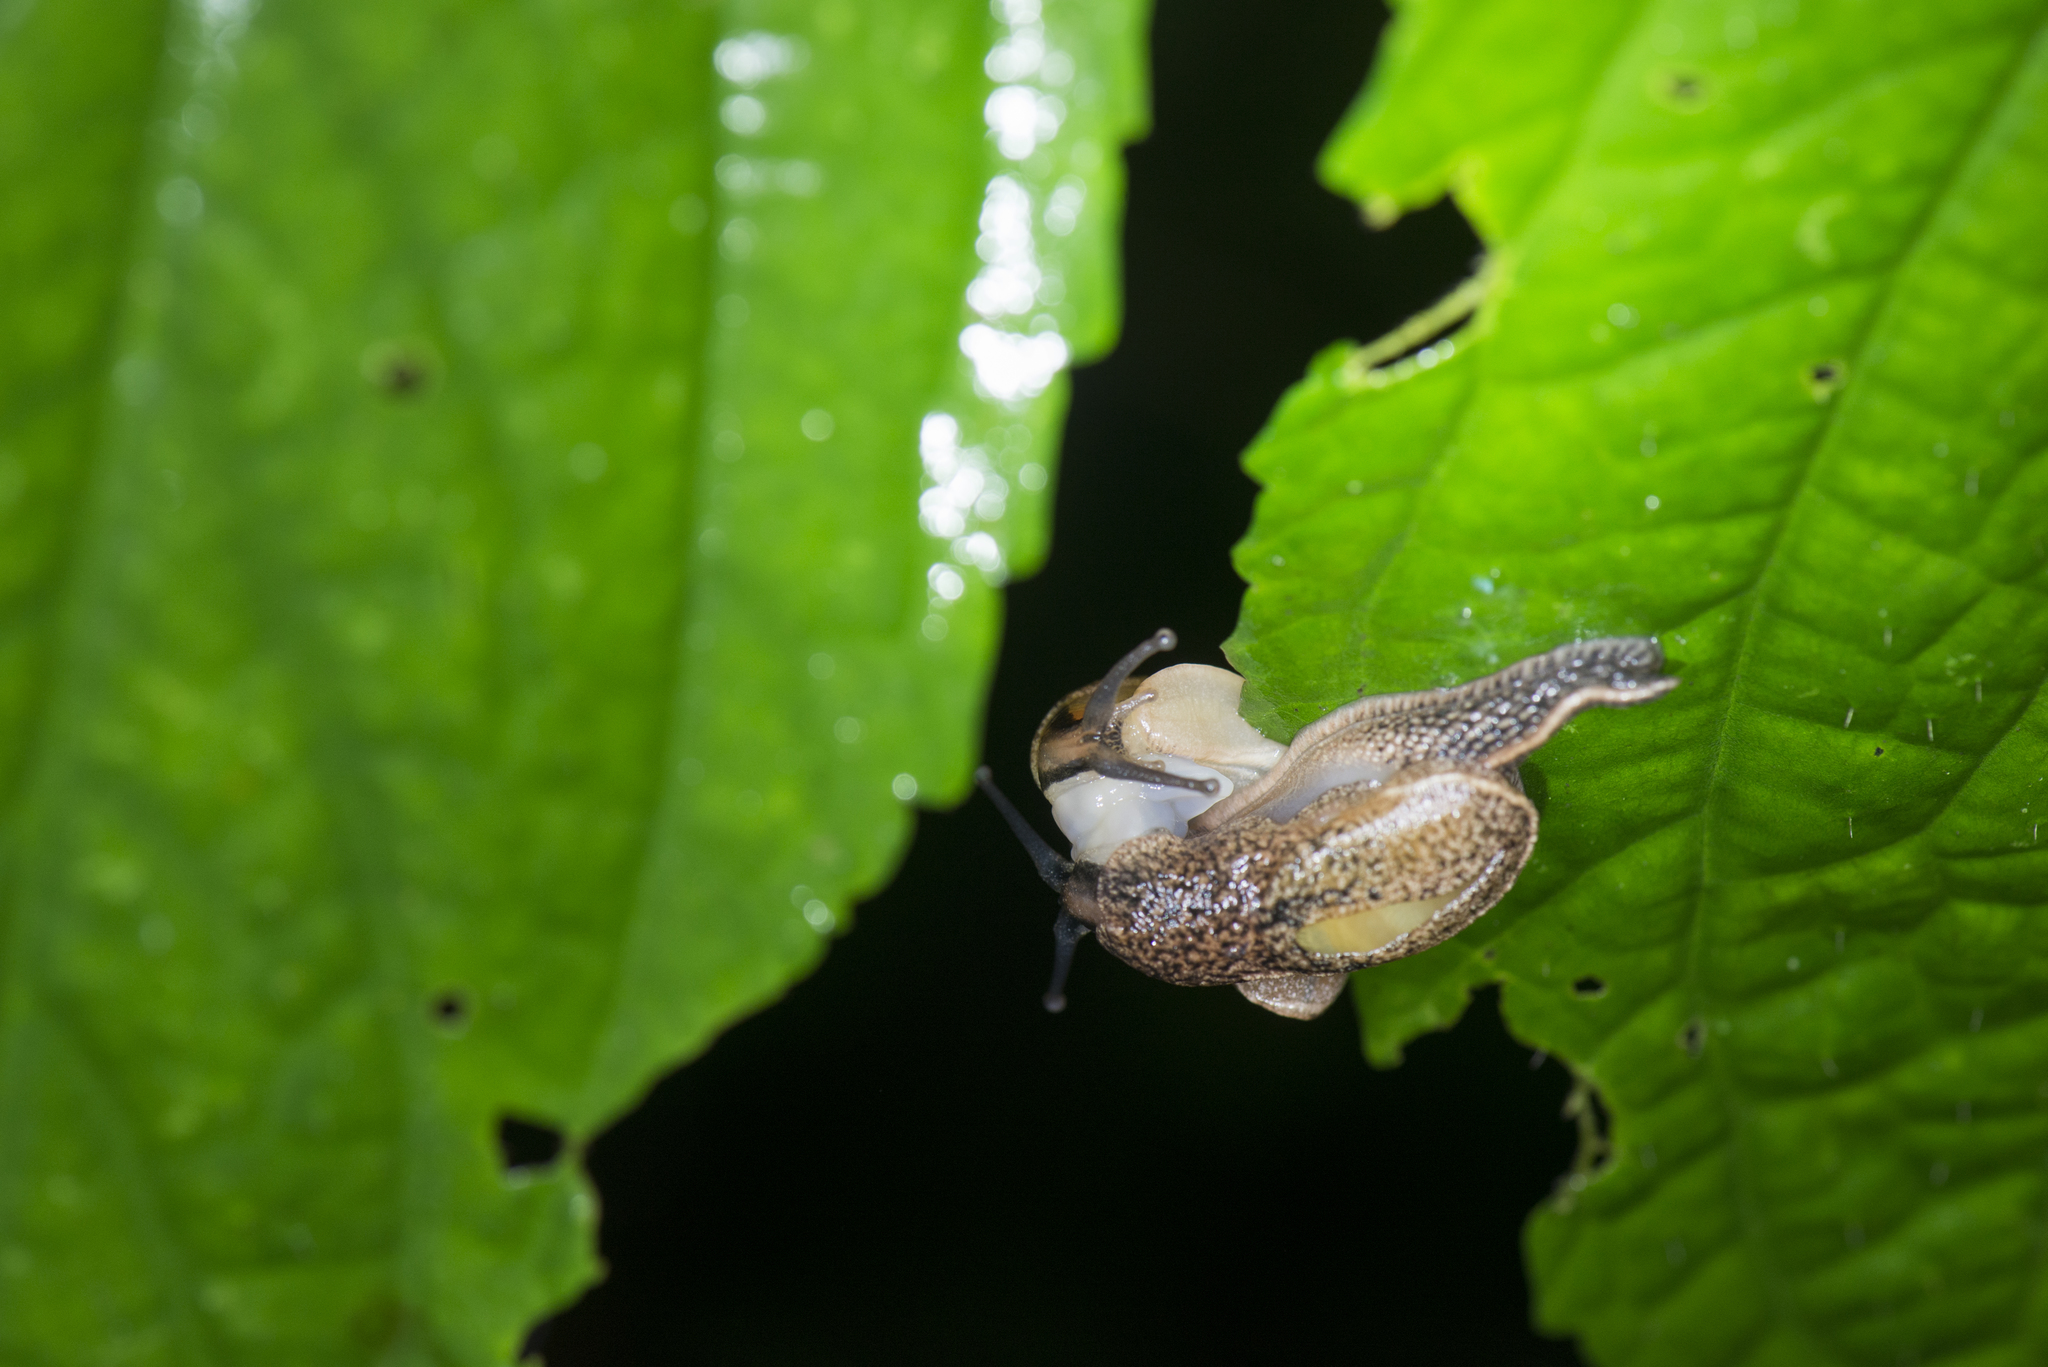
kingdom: Animalia
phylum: Mollusca
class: Gastropoda
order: Stylommatophora
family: Ariophantidae
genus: Parmarion
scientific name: Parmarion martensi
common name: Semi-slug
